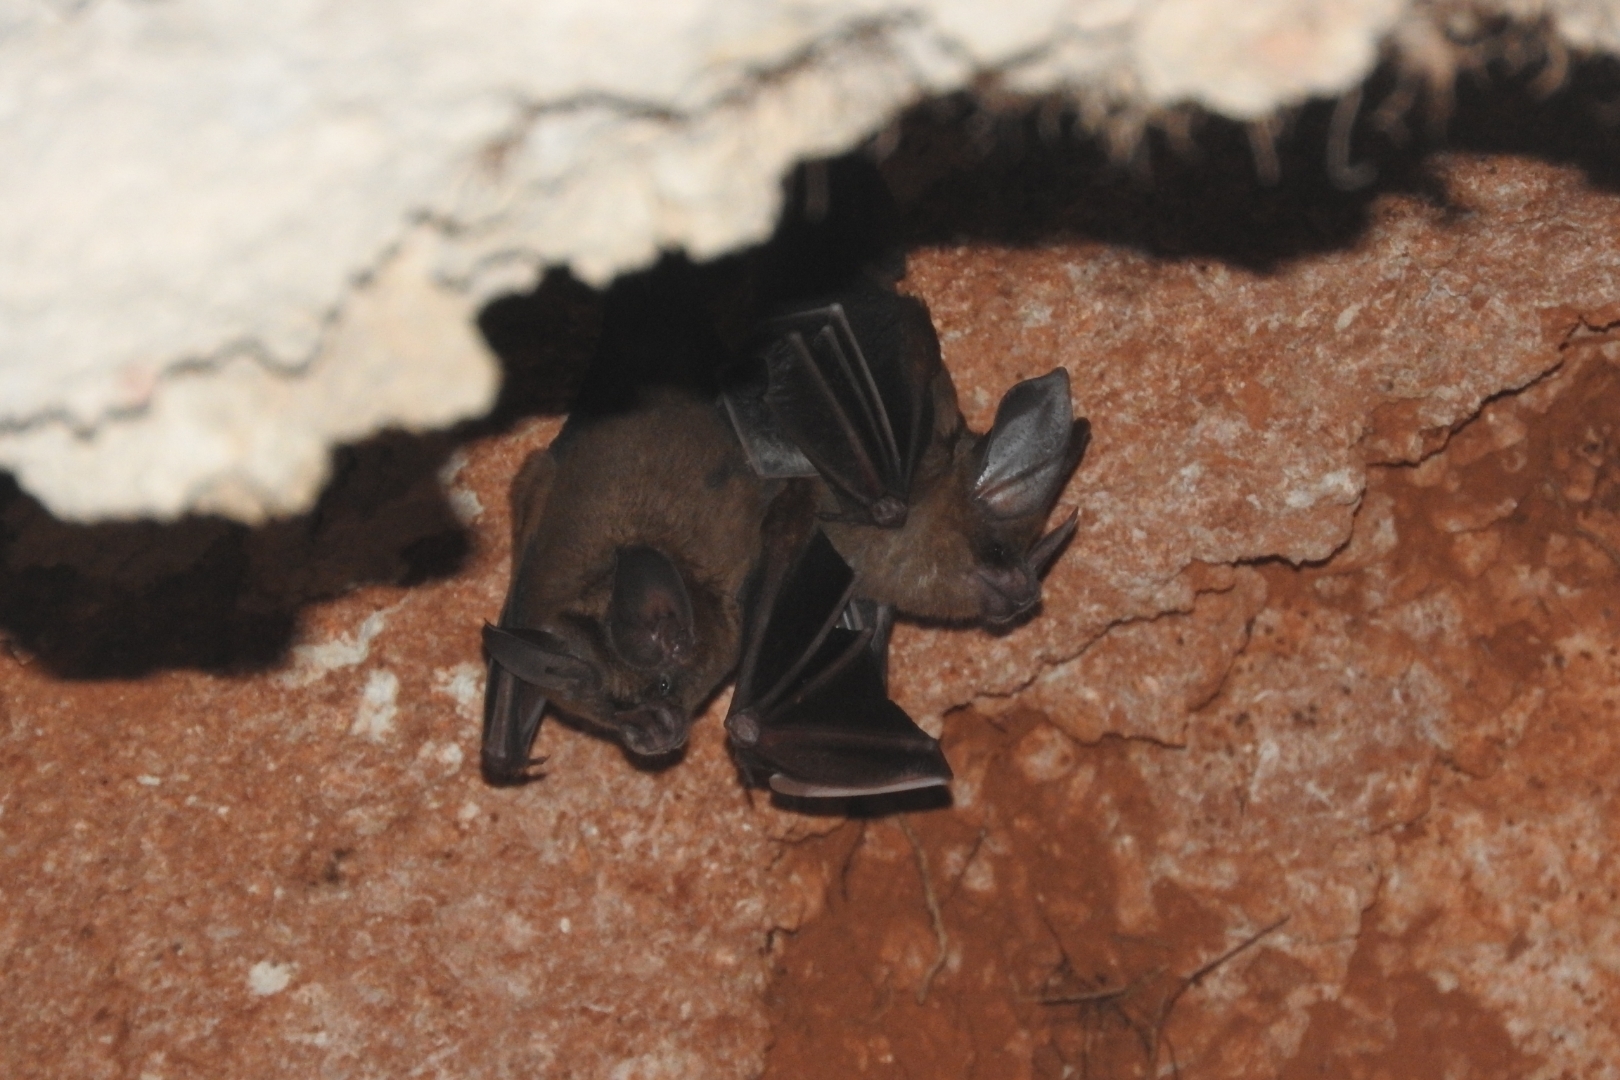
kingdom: Animalia
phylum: Chordata
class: Mammalia
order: Chiroptera
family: Phyllostomidae
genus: Mimon
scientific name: Mimon cozumelae
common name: Cozumelan golden bat
